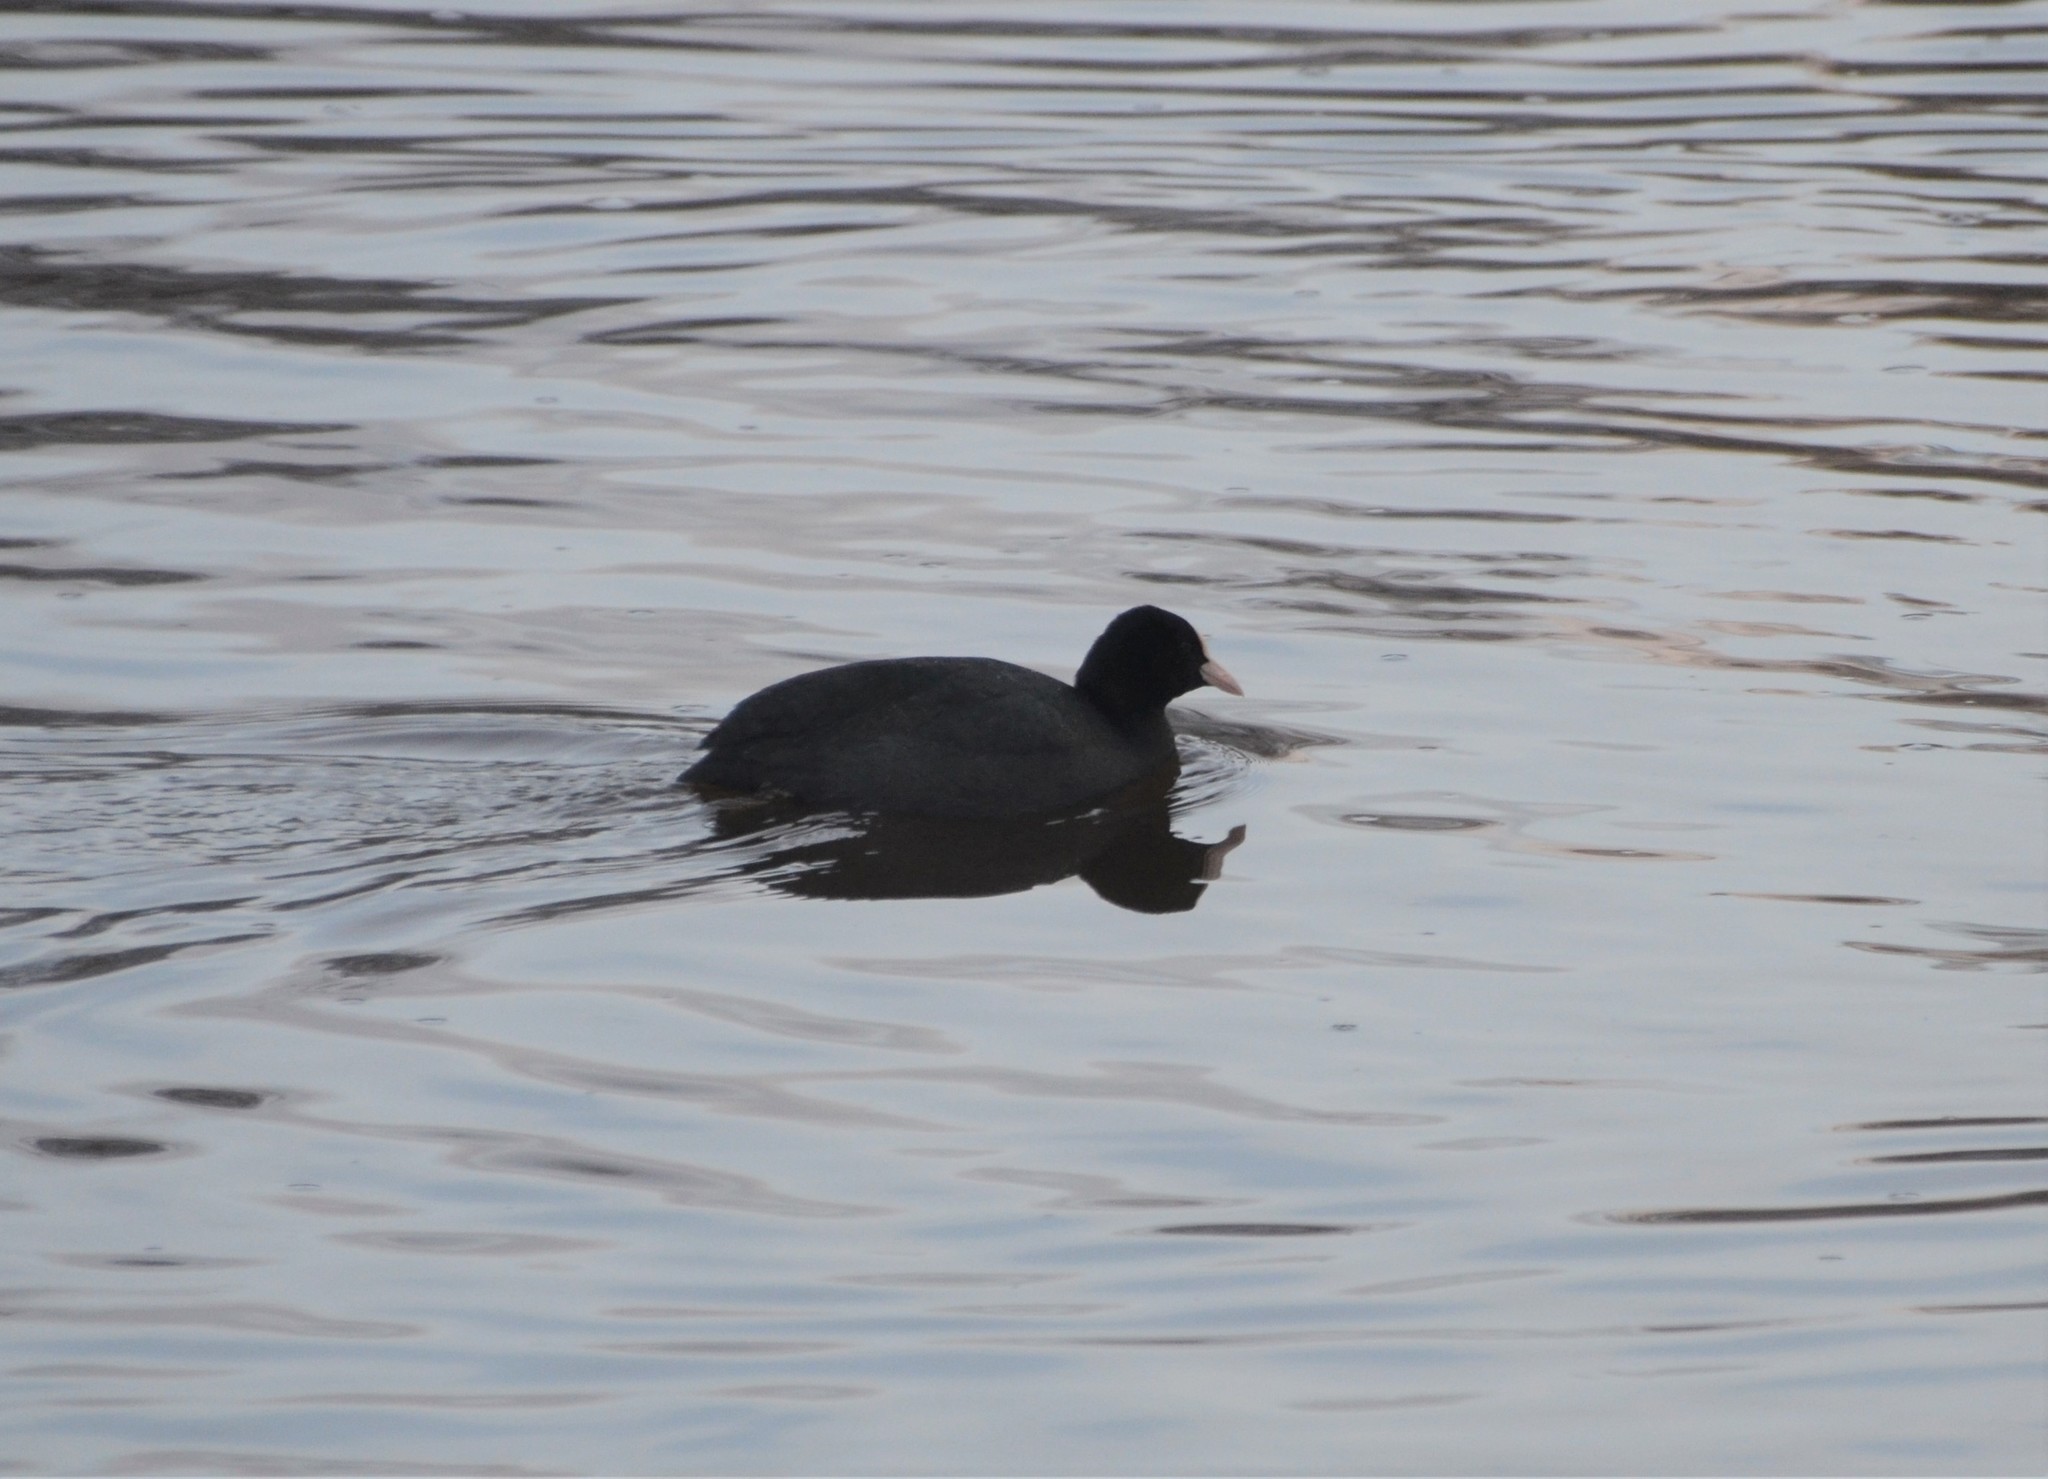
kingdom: Animalia
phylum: Chordata
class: Aves
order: Gruiformes
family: Rallidae
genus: Fulica
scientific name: Fulica atra
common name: Eurasian coot
